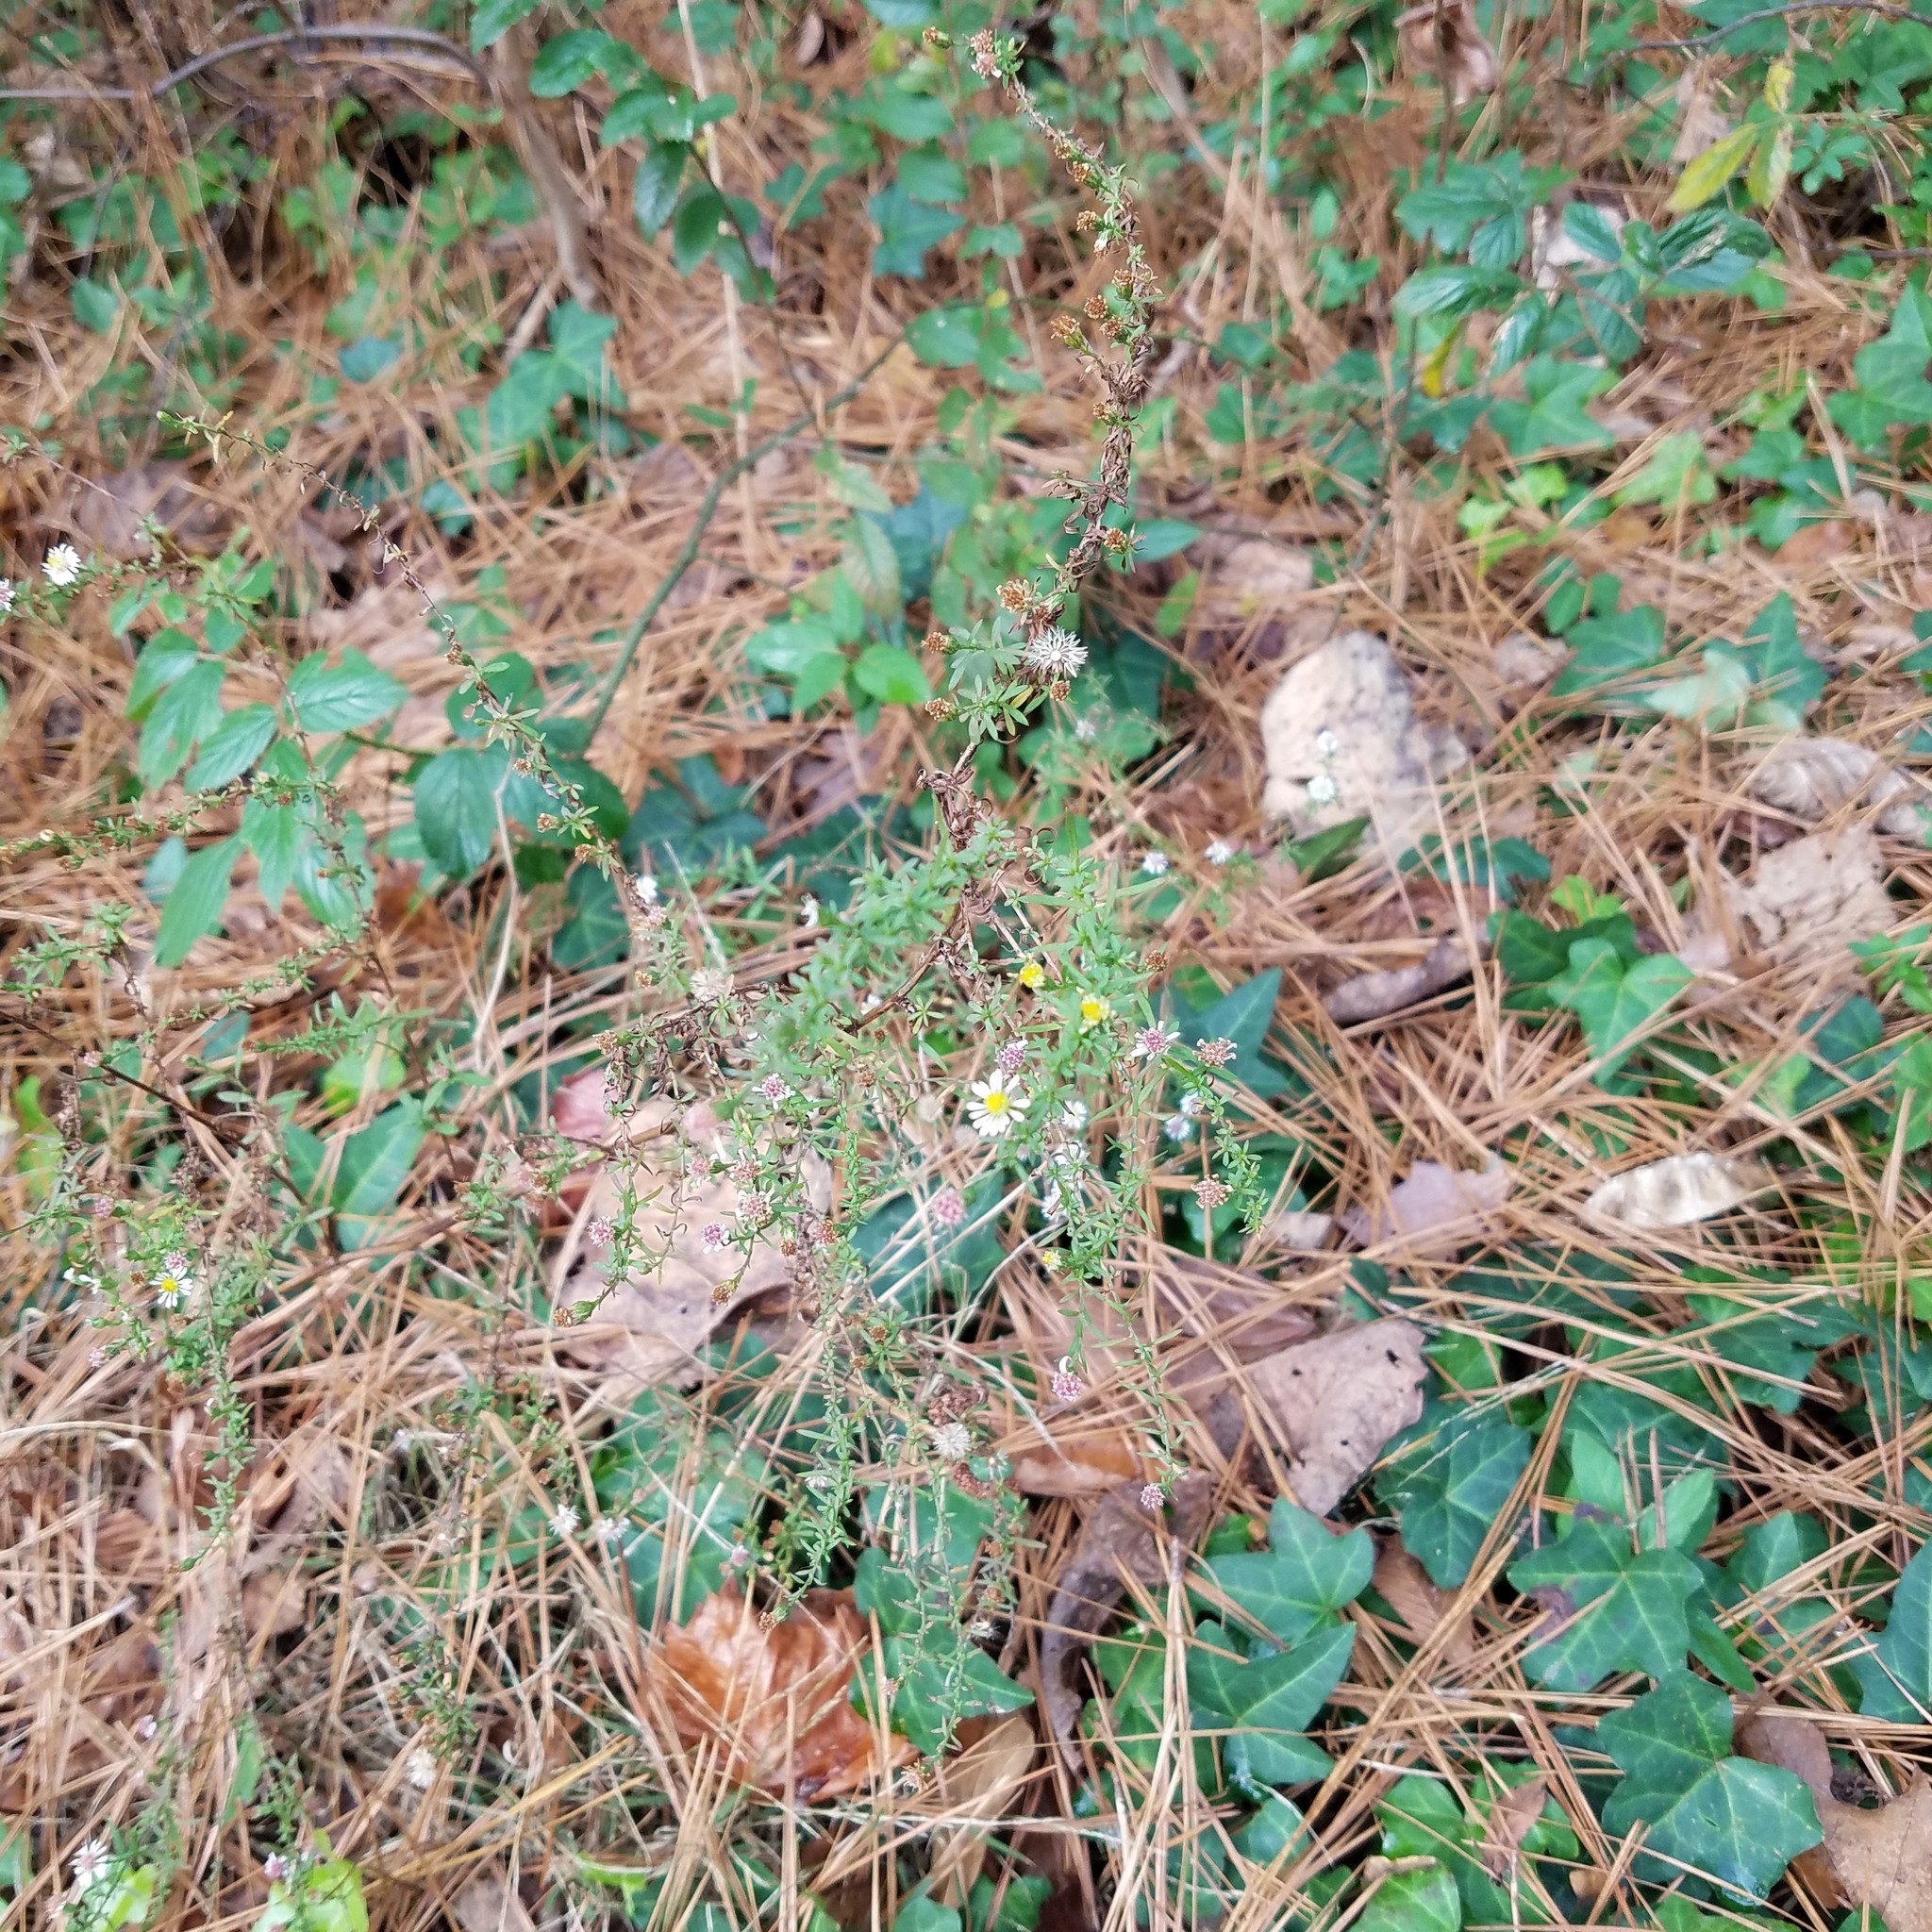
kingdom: Plantae
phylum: Tracheophyta
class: Magnoliopsida
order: Asterales
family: Asteraceae
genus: Symphyotrichum
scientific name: Symphyotrichum lateriflorum
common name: Calico aster
